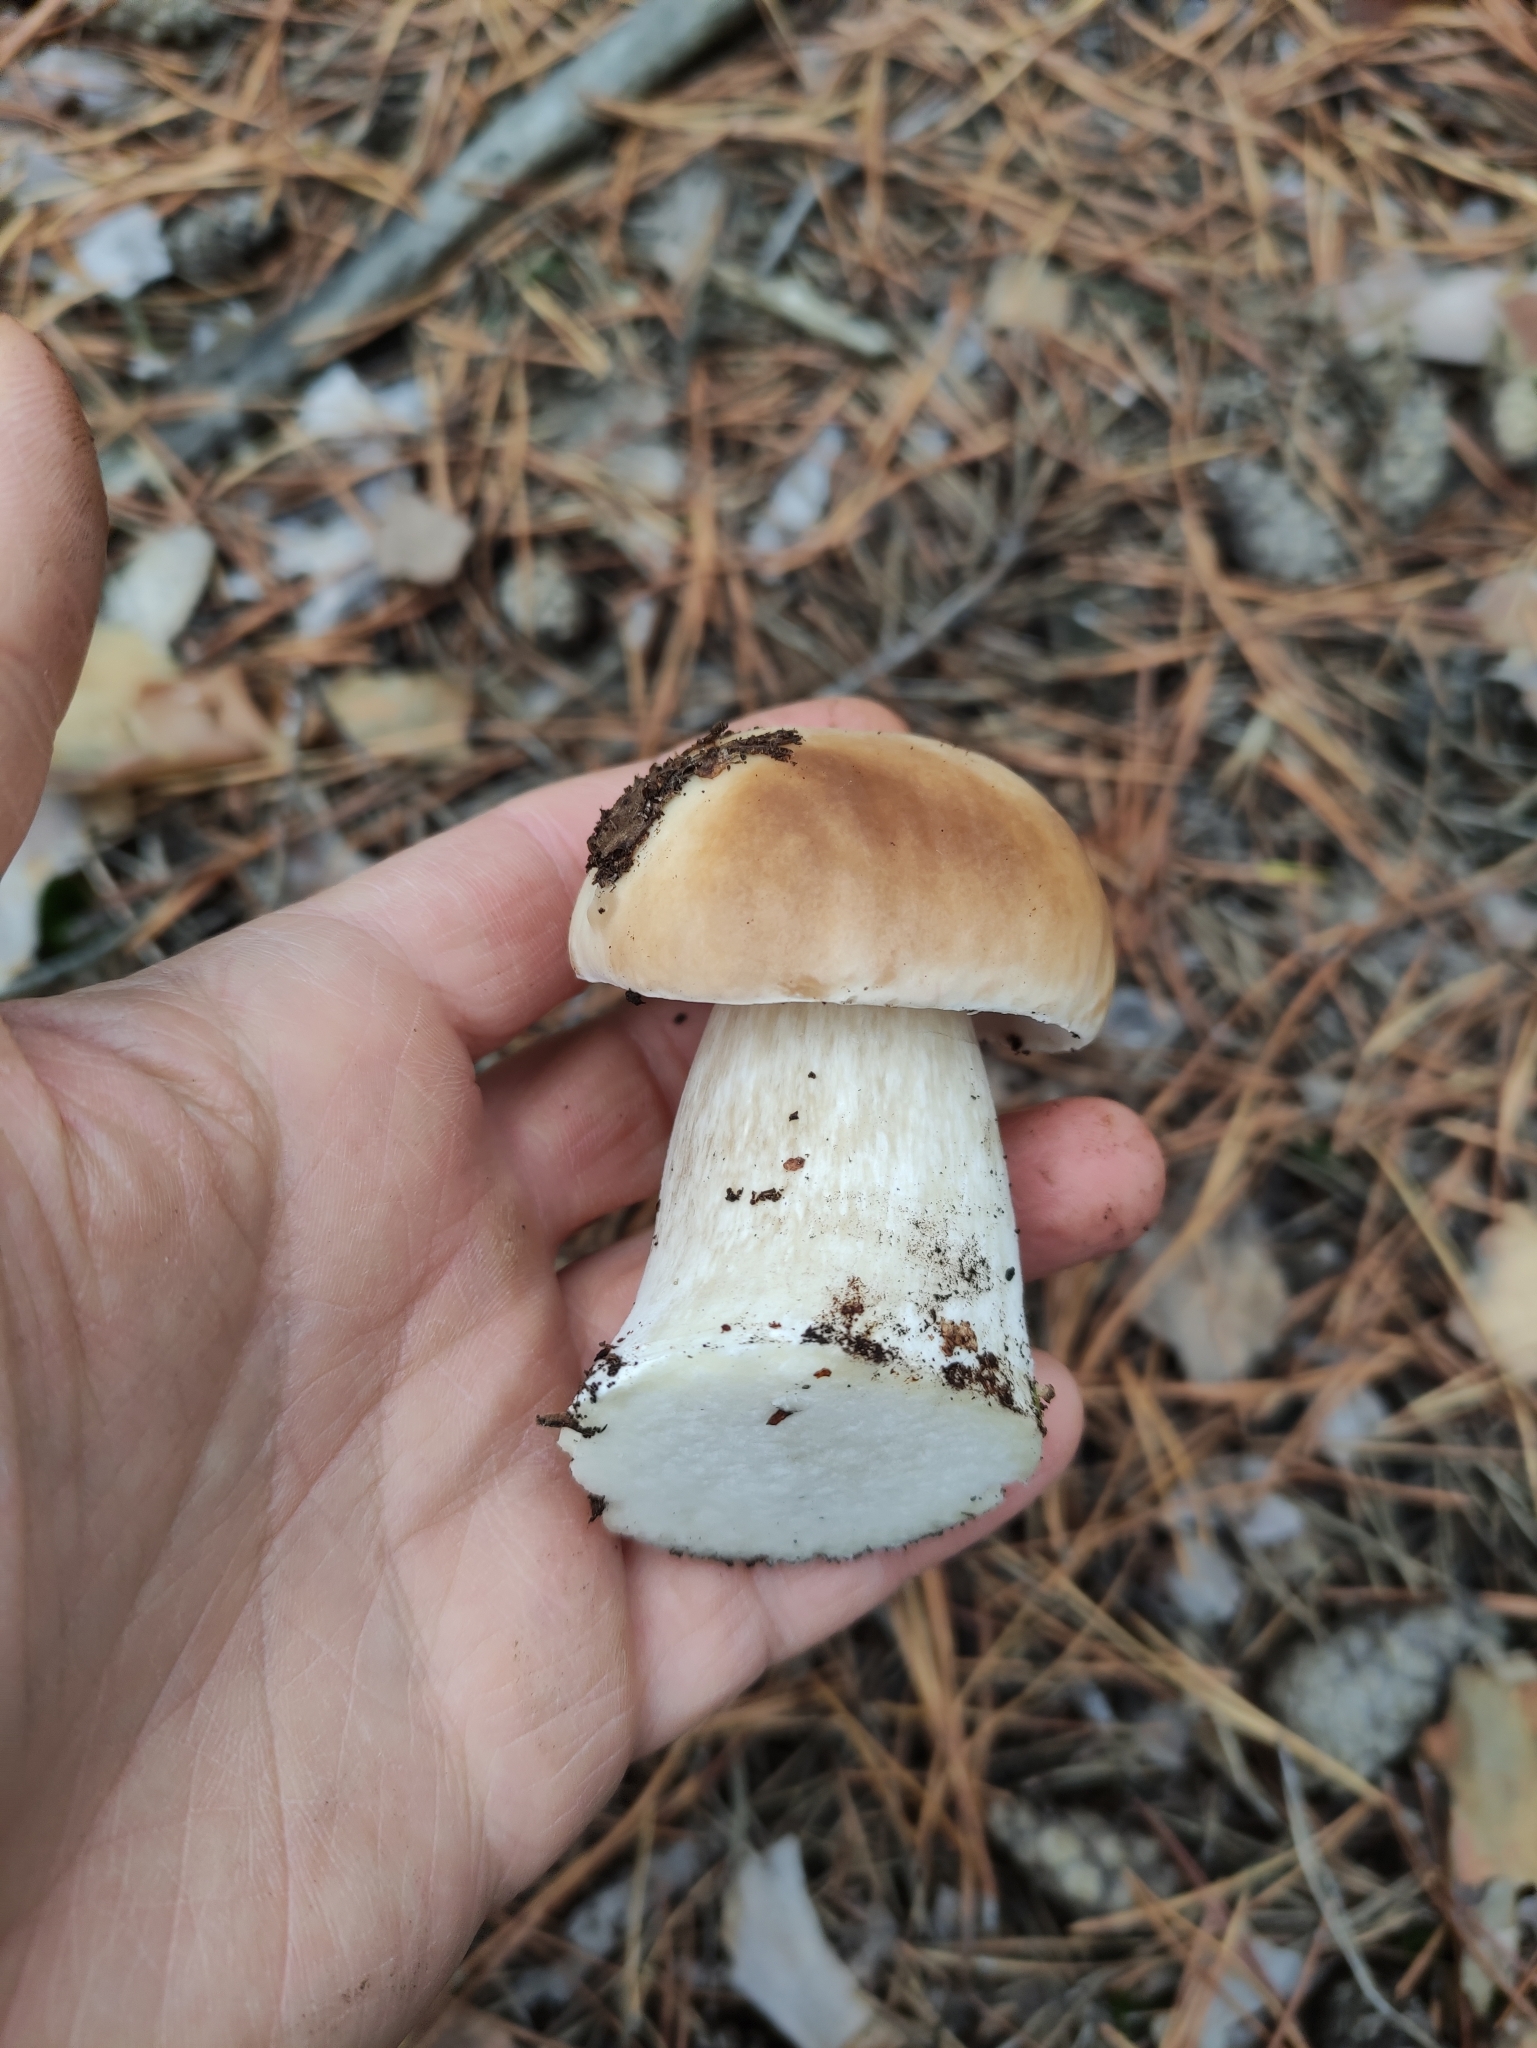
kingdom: Fungi
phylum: Basidiomycota
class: Agaricomycetes
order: Boletales
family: Boletaceae
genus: Boletus
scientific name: Boletus edulis
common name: Cep
